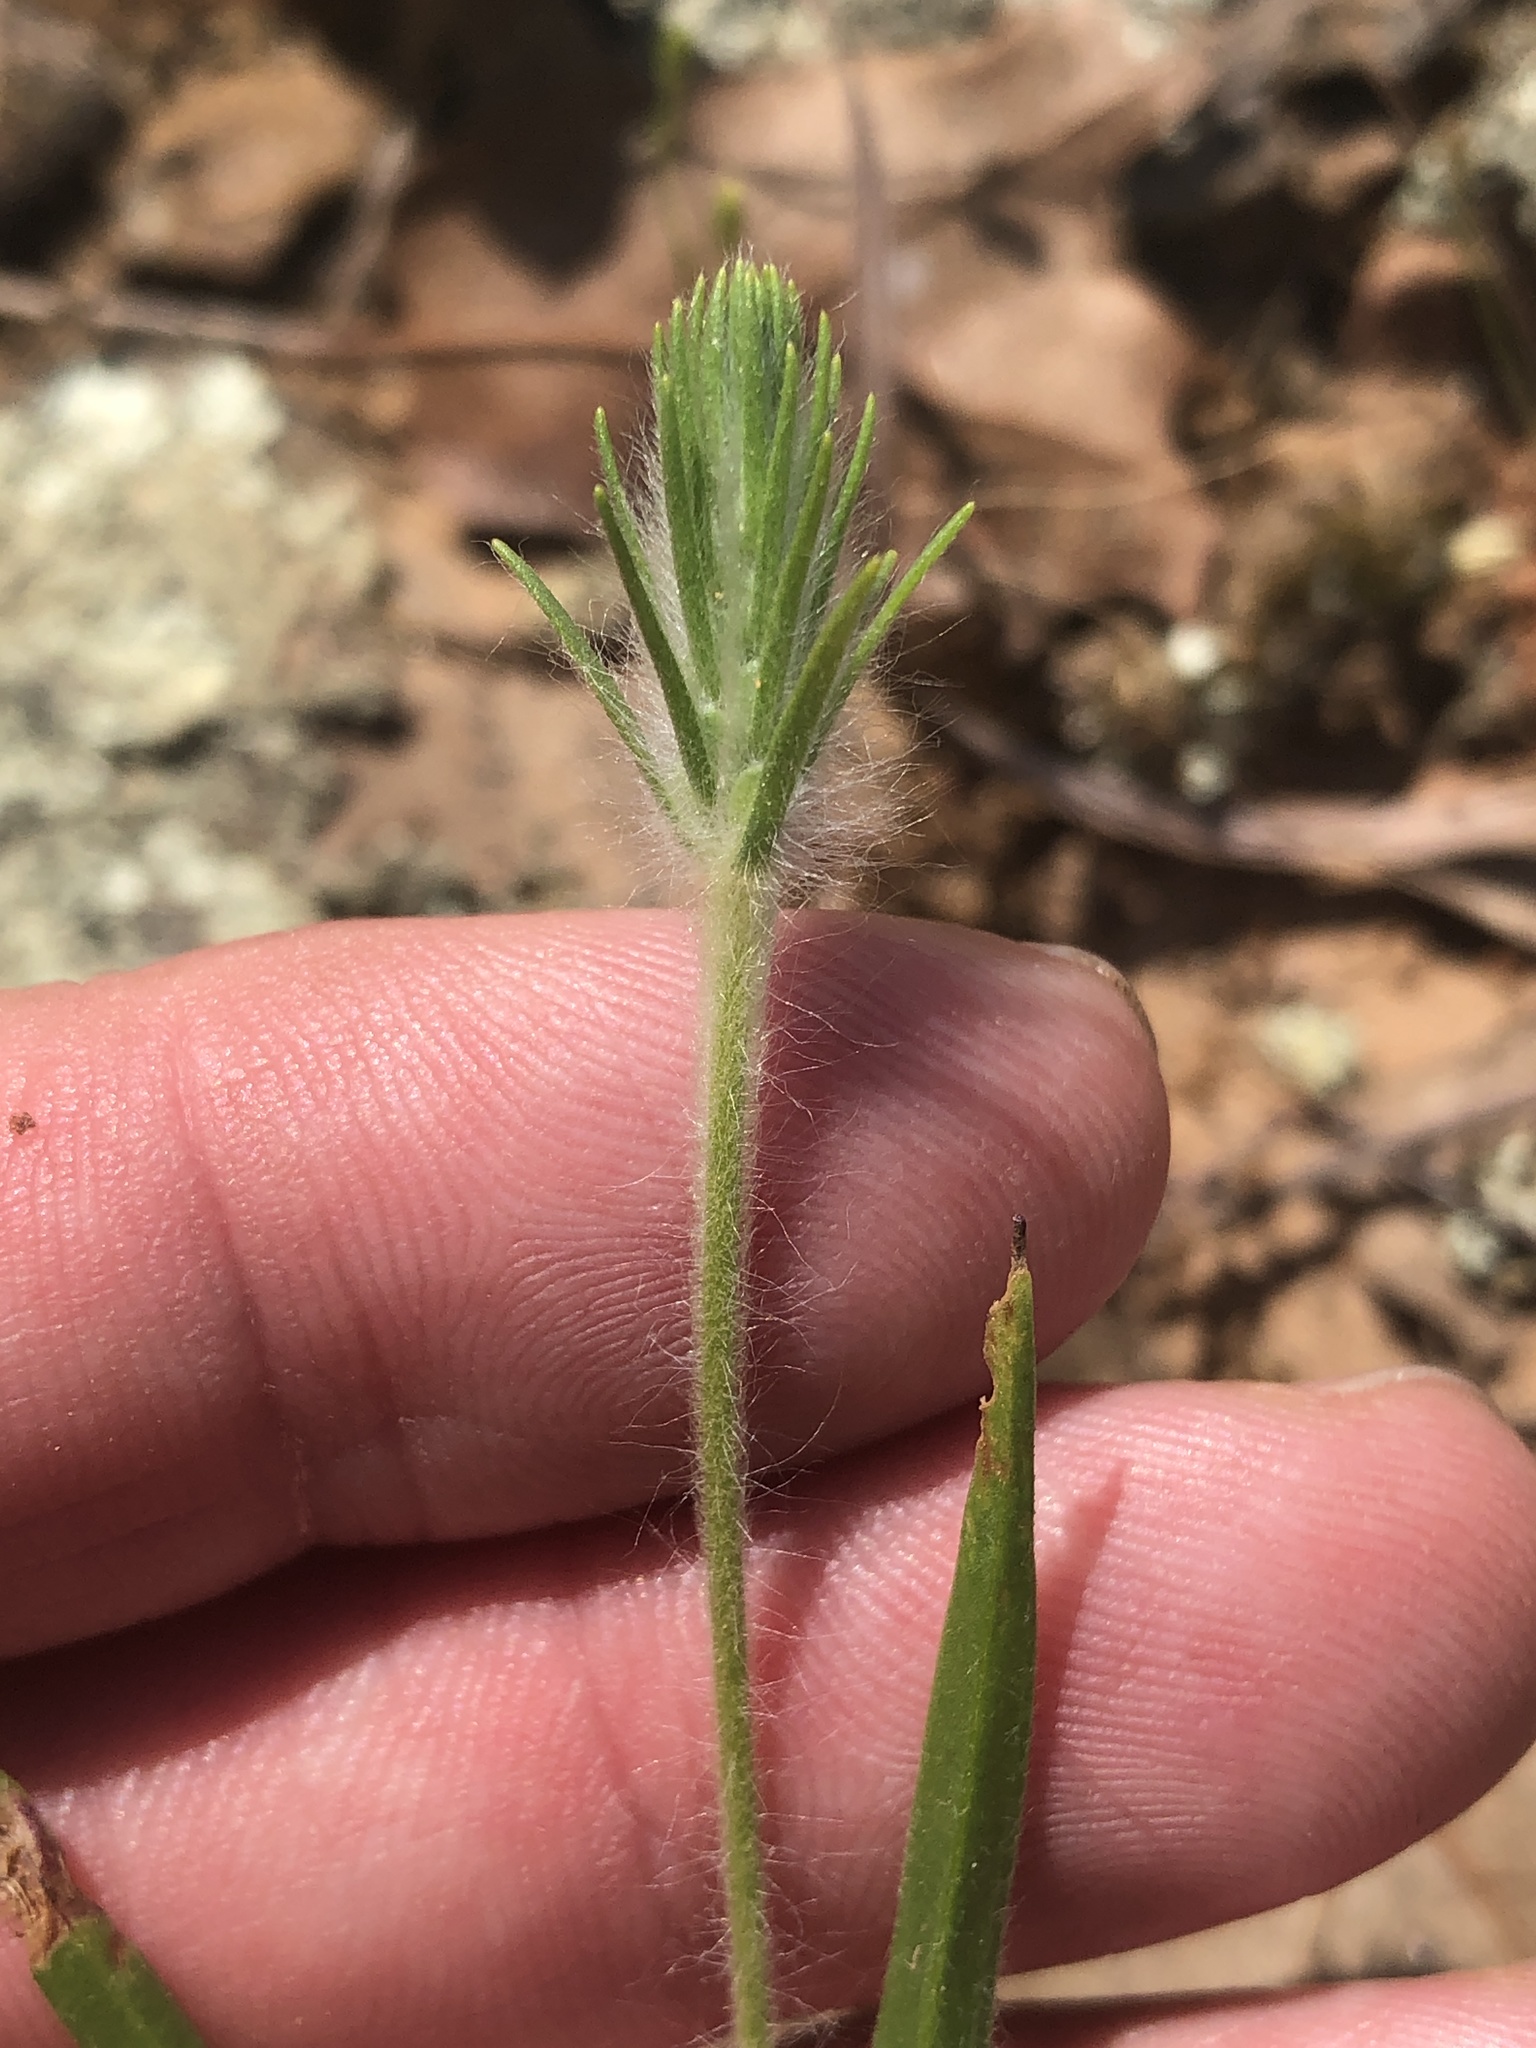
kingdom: Plantae
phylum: Tracheophyta
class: Magnoliopsida
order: Lamiales
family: Plantaginaceae
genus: Plantago
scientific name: Plantago aristata
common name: Bracted plantain
